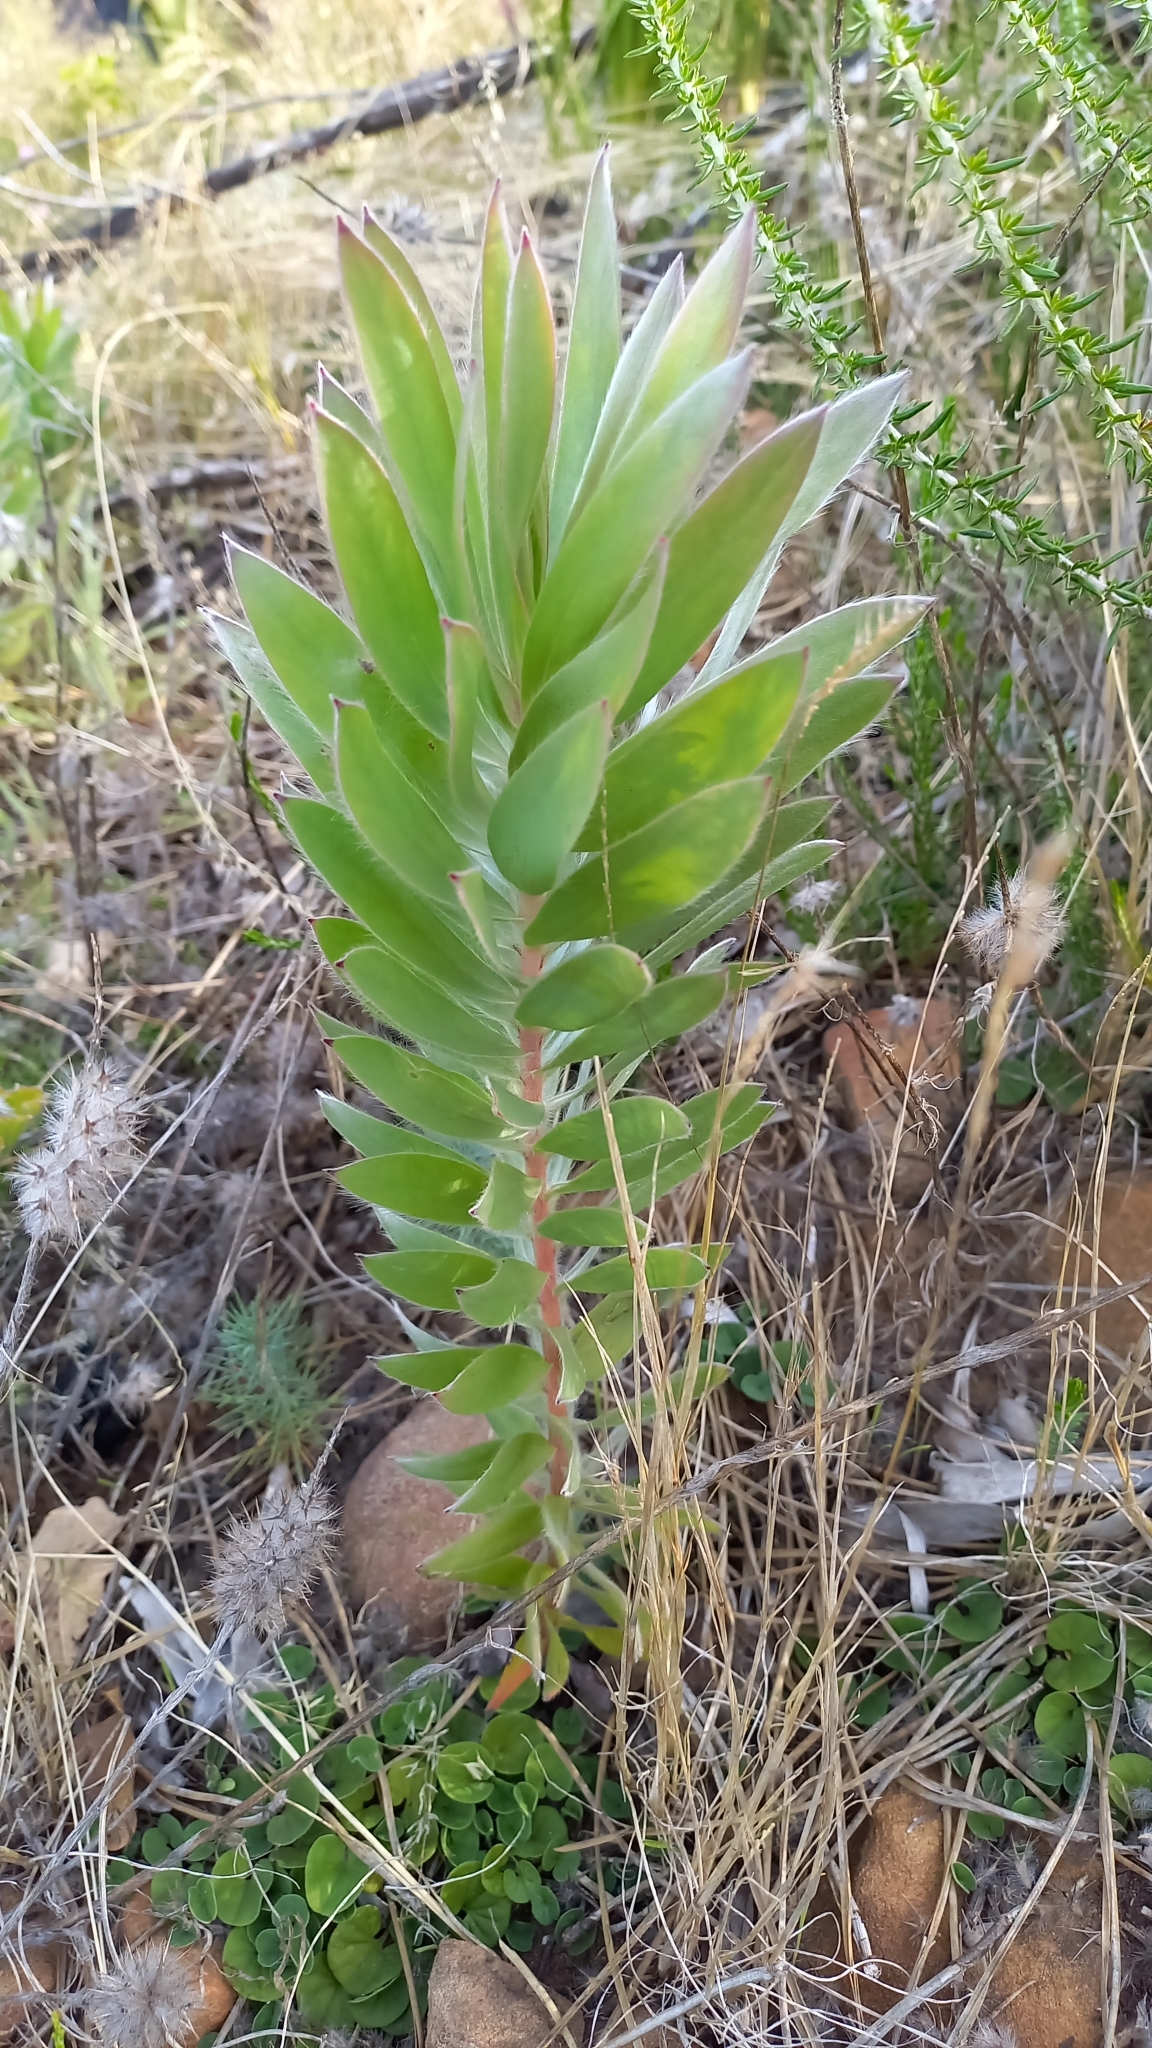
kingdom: Plantae
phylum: Tracheophyta
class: Magnoliopsida
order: Proteales
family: Proteaceae
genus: Leucadendron
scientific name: Leucadendron argenteum
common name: Cape silver tree
